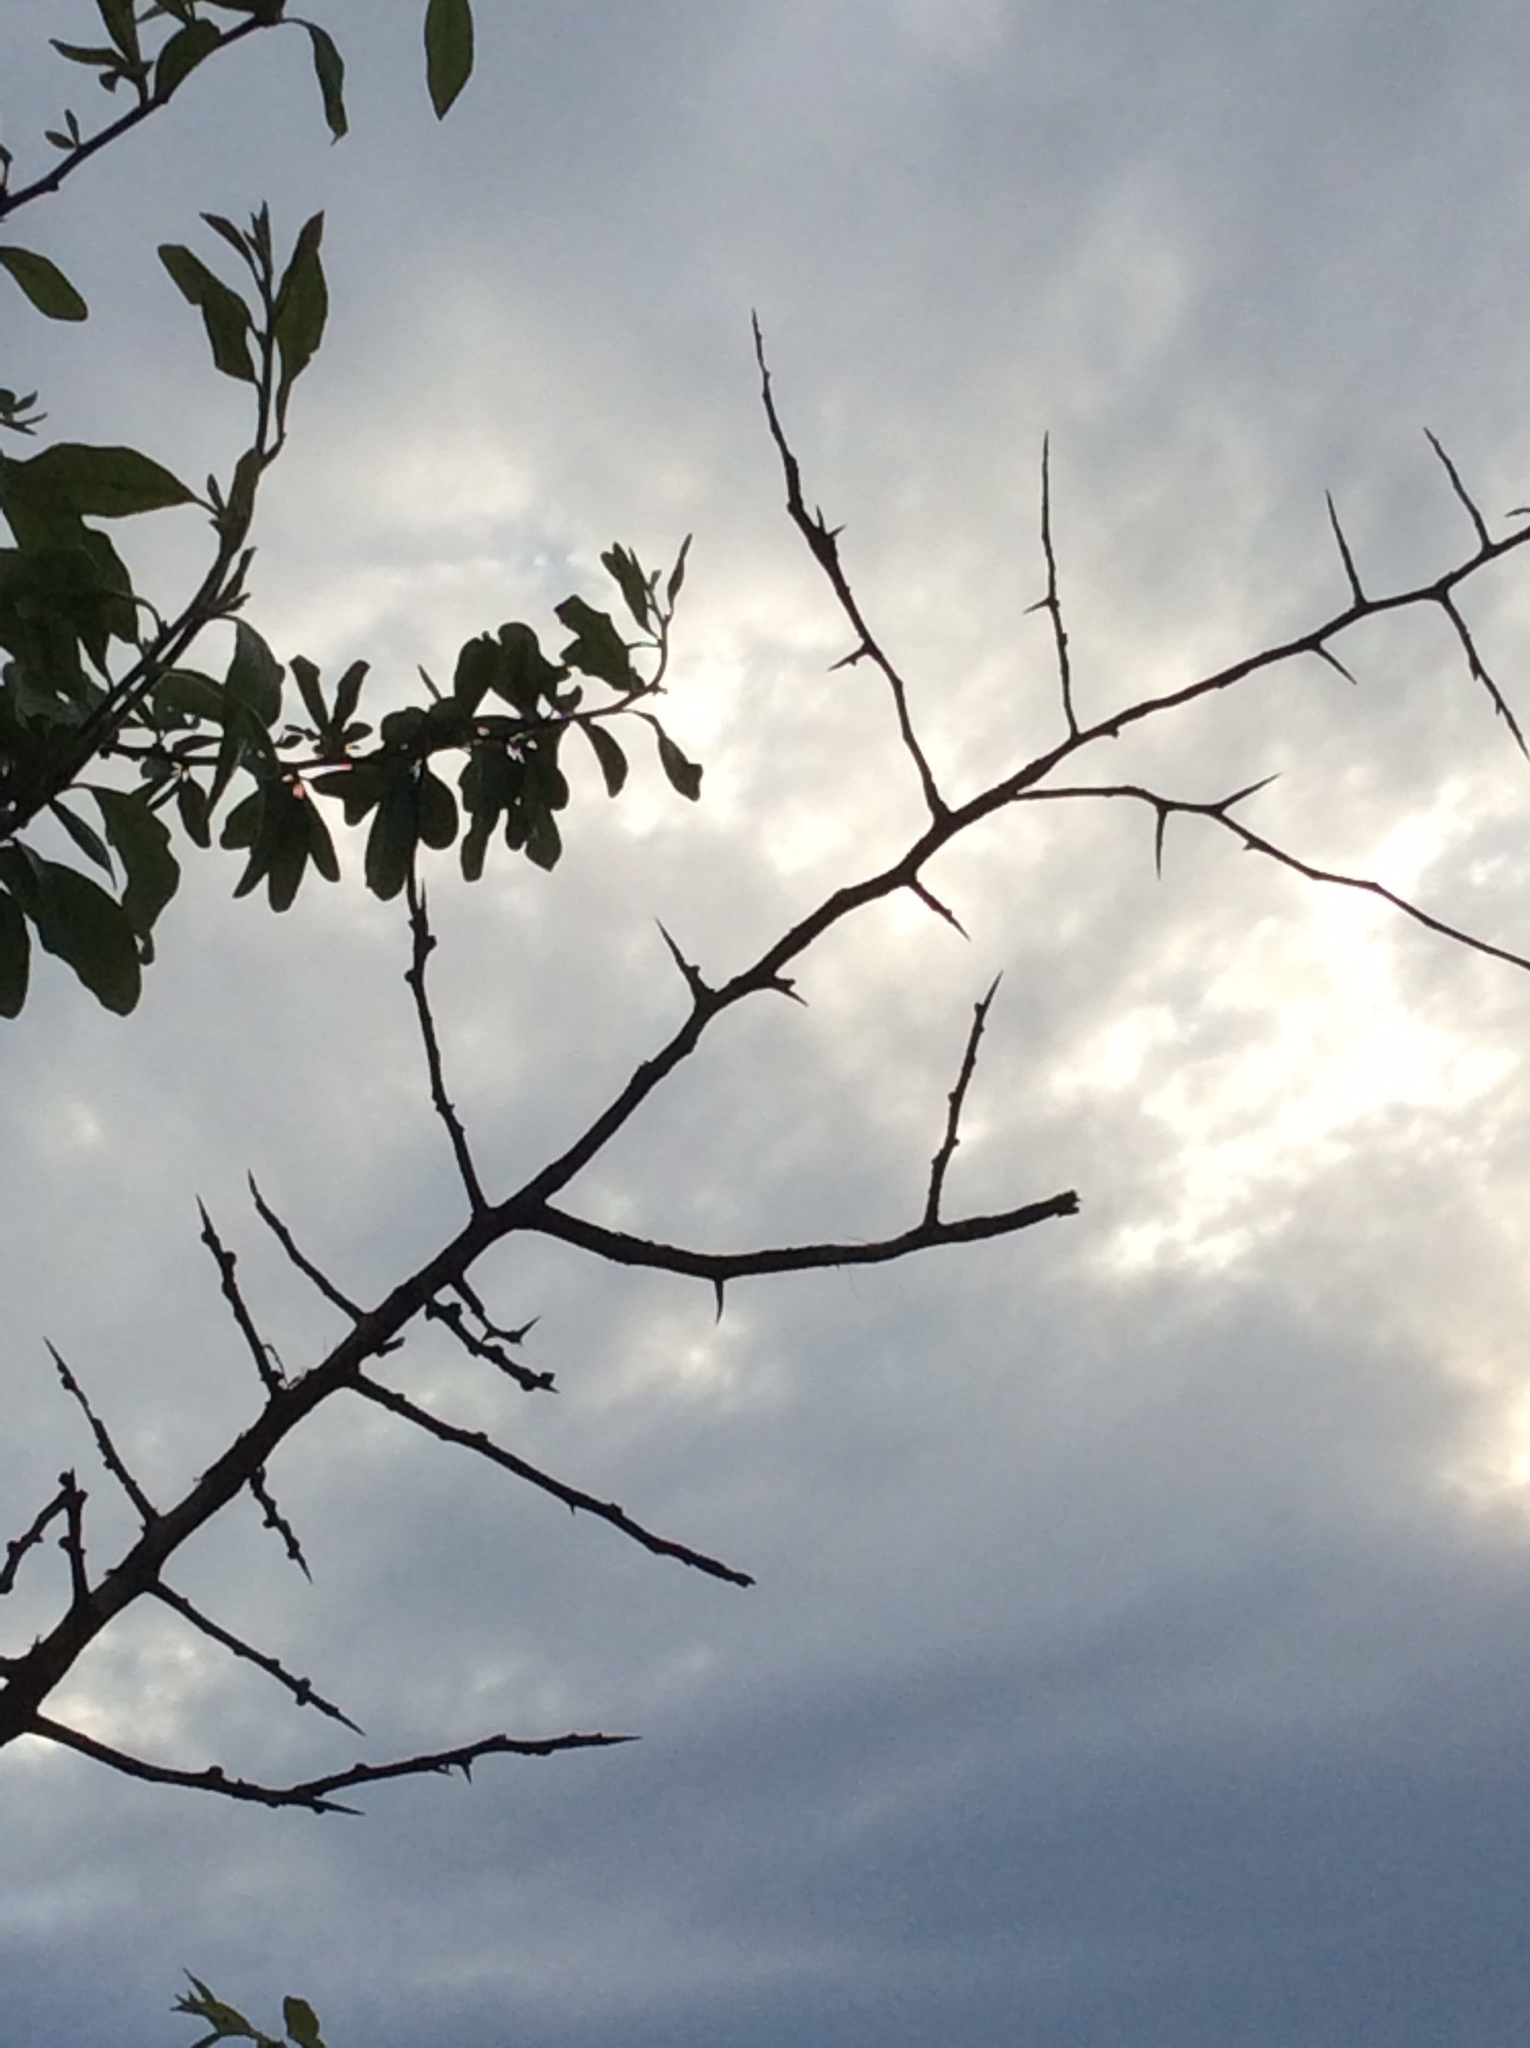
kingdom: Plantae
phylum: Tracheophyta
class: Magnoliopsida
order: Ericales
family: Sapotaceae
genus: Sideroxylon
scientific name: Sideroxylon lanuginosum
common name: Chittamwood
